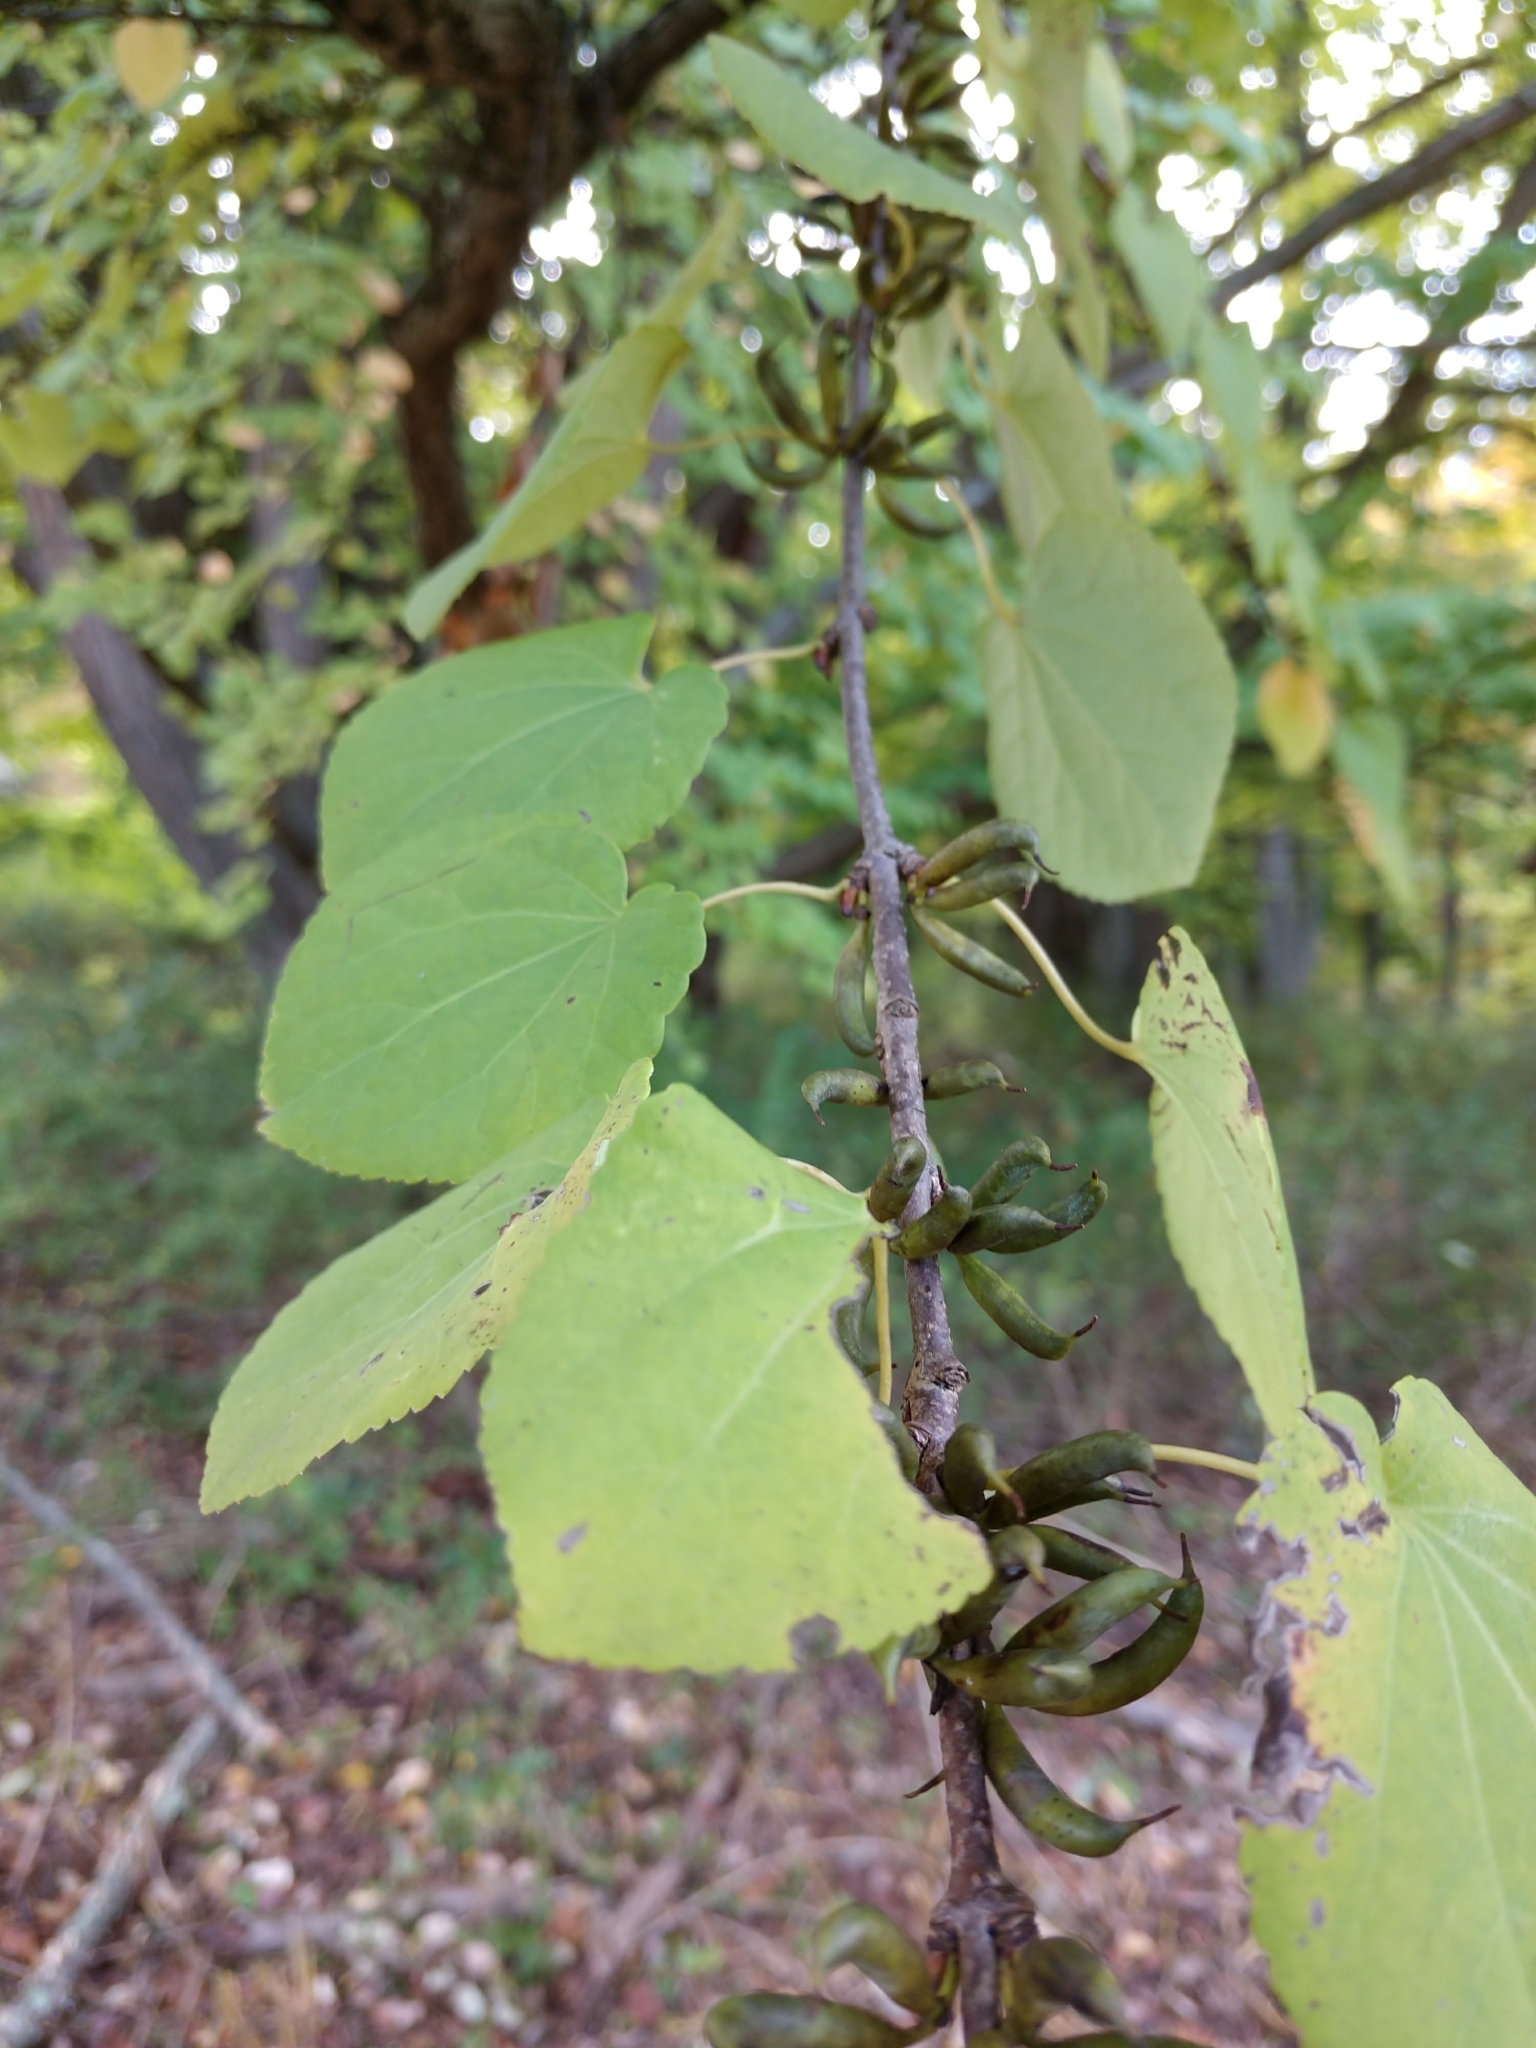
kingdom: Plantae
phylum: Tracheophyta
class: Magnoliopsida
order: Saxifragales
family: Cercidiphyllaceae
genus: Cercidiphyllum
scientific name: Cercidiphyllum japonicum
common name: Katsura tree
